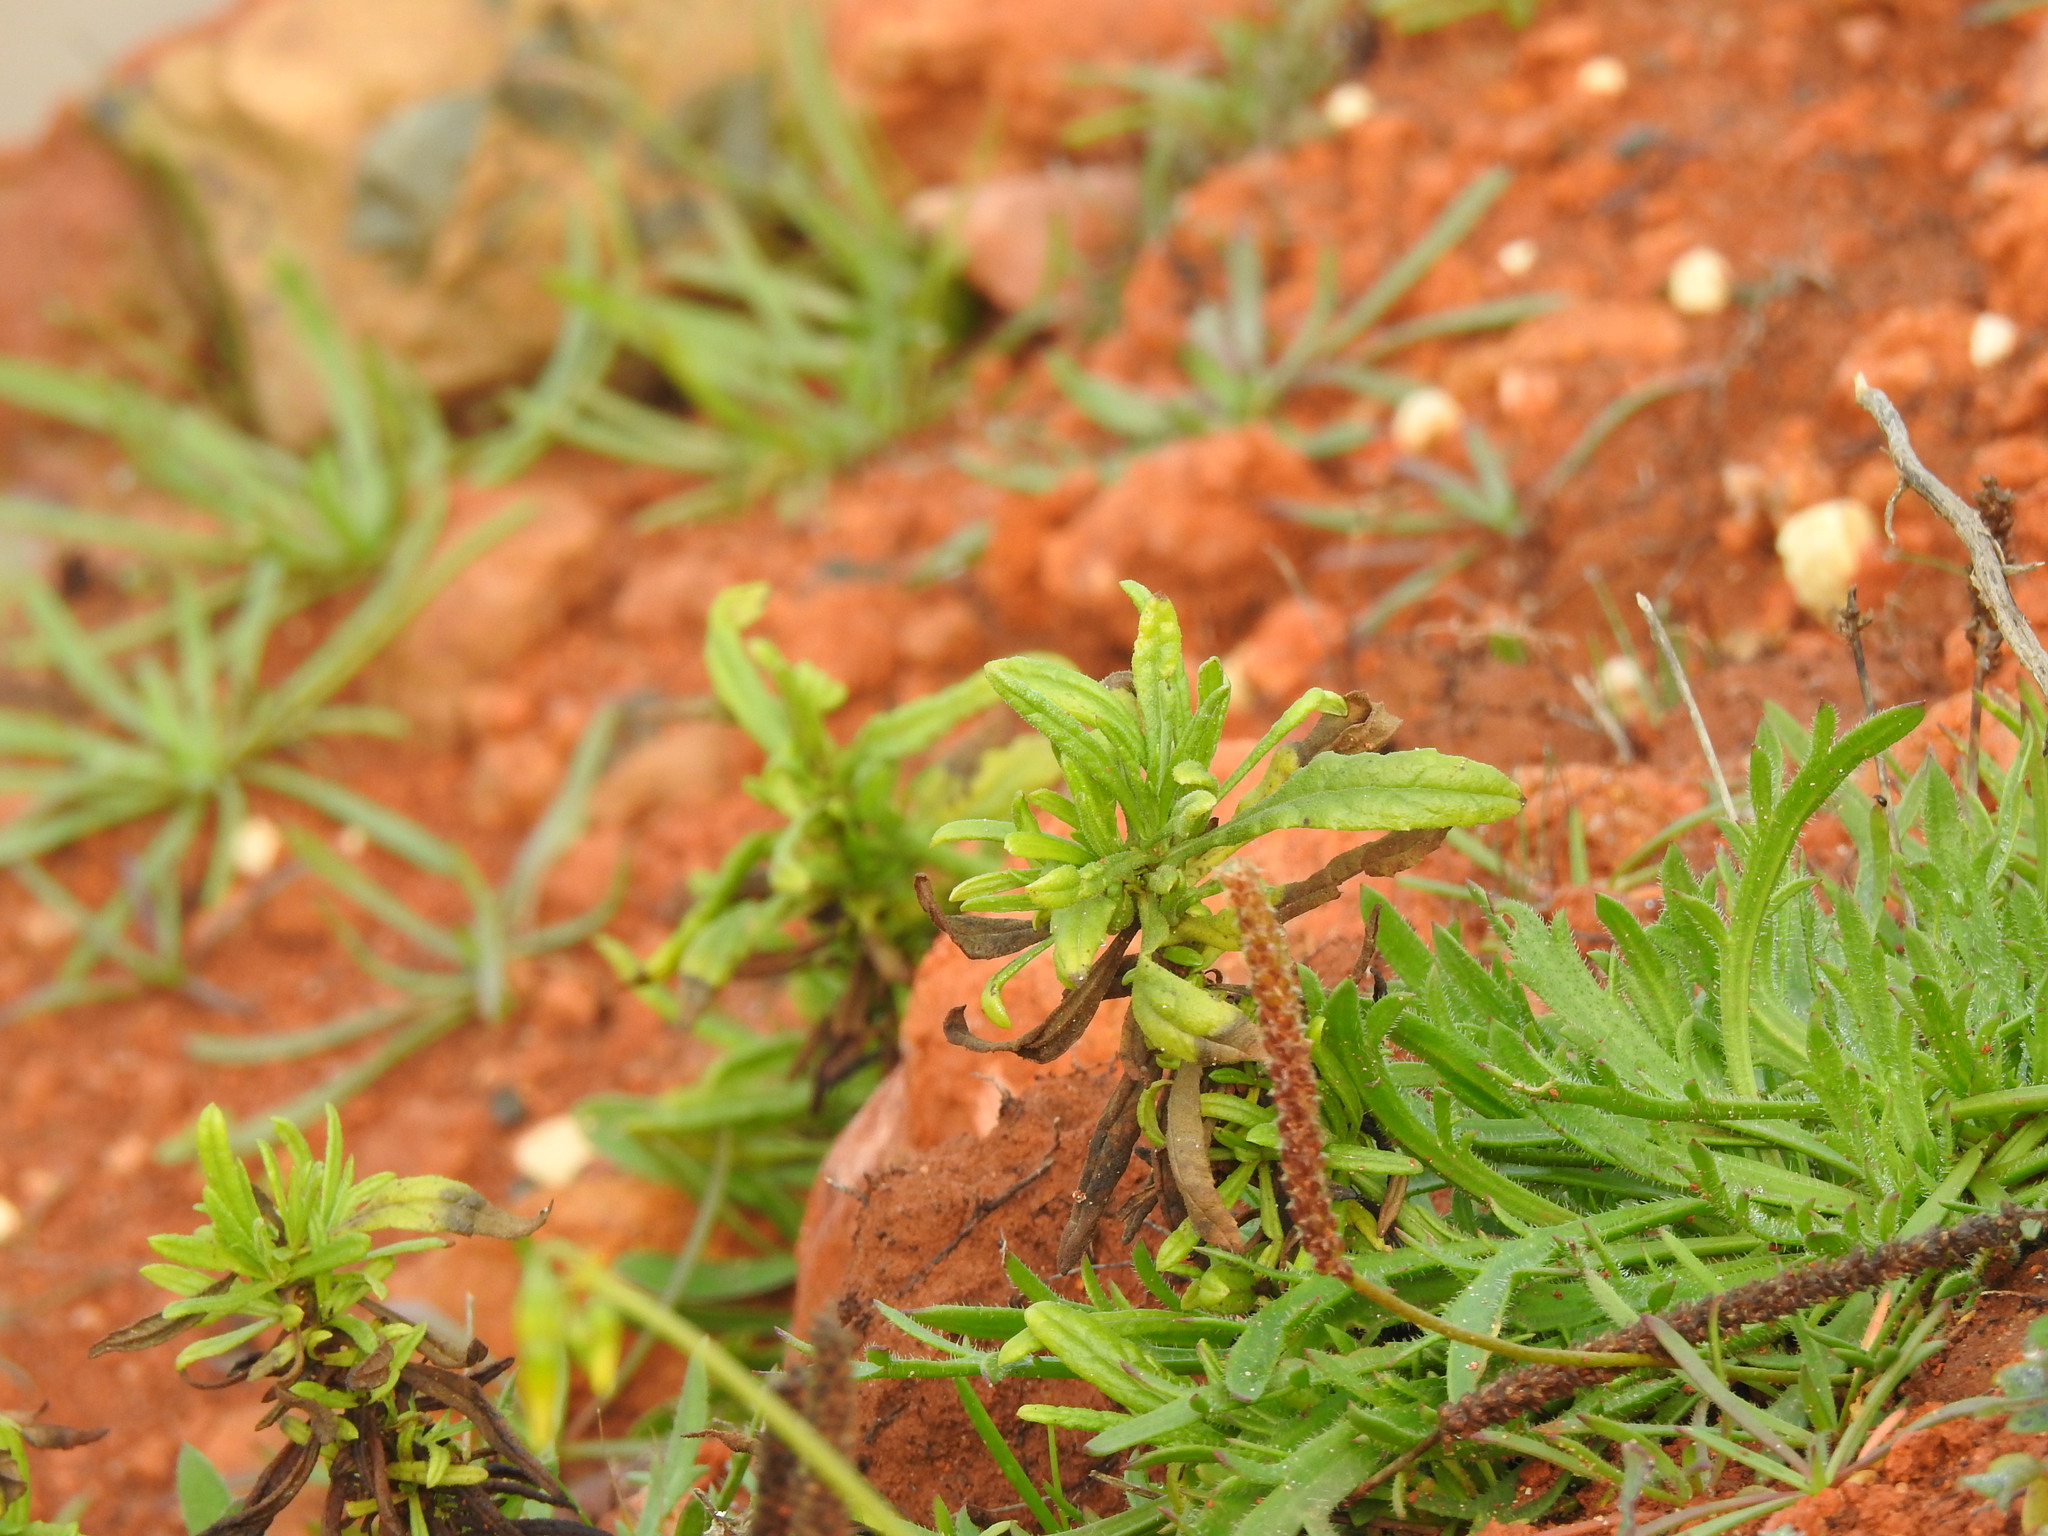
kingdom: Plantae
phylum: Tracheophyta
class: Magnoliopsida
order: Asterales
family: Asteraceae
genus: Dittrichia
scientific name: Dittrichia viscosa
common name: Woody fleabane
